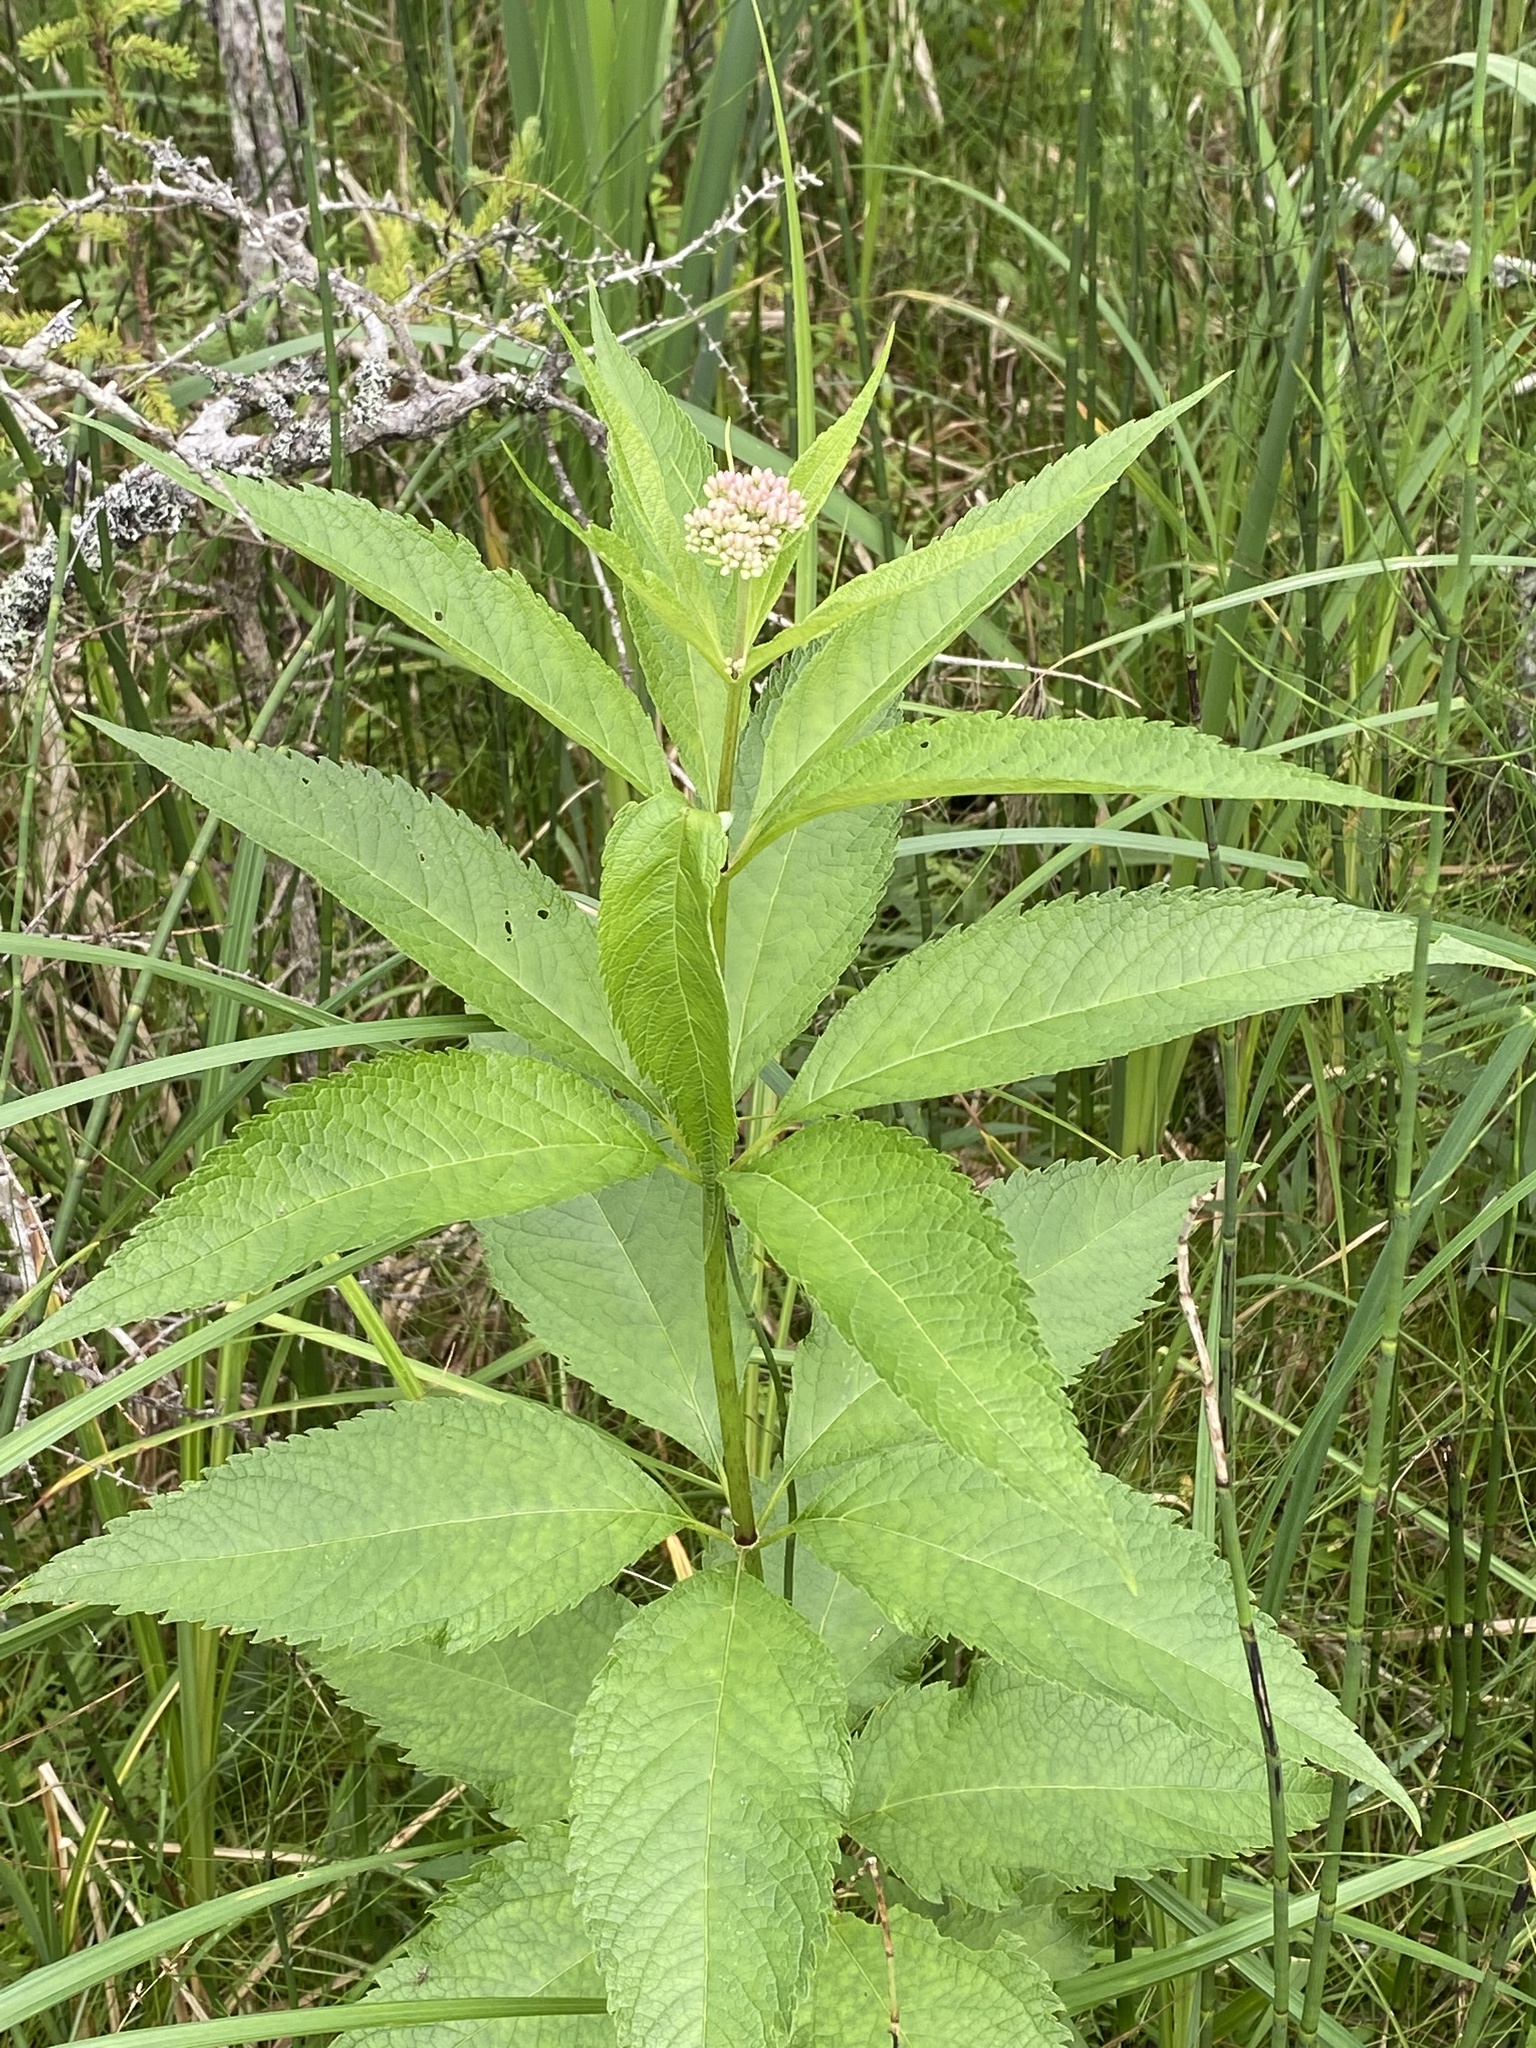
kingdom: Plantae
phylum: Tracheophyta
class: Magnoliopsida
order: Asterales
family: Asteraceae
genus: Eutrochium
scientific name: Eutrochium maculatum
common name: Spotted joe pye weed
